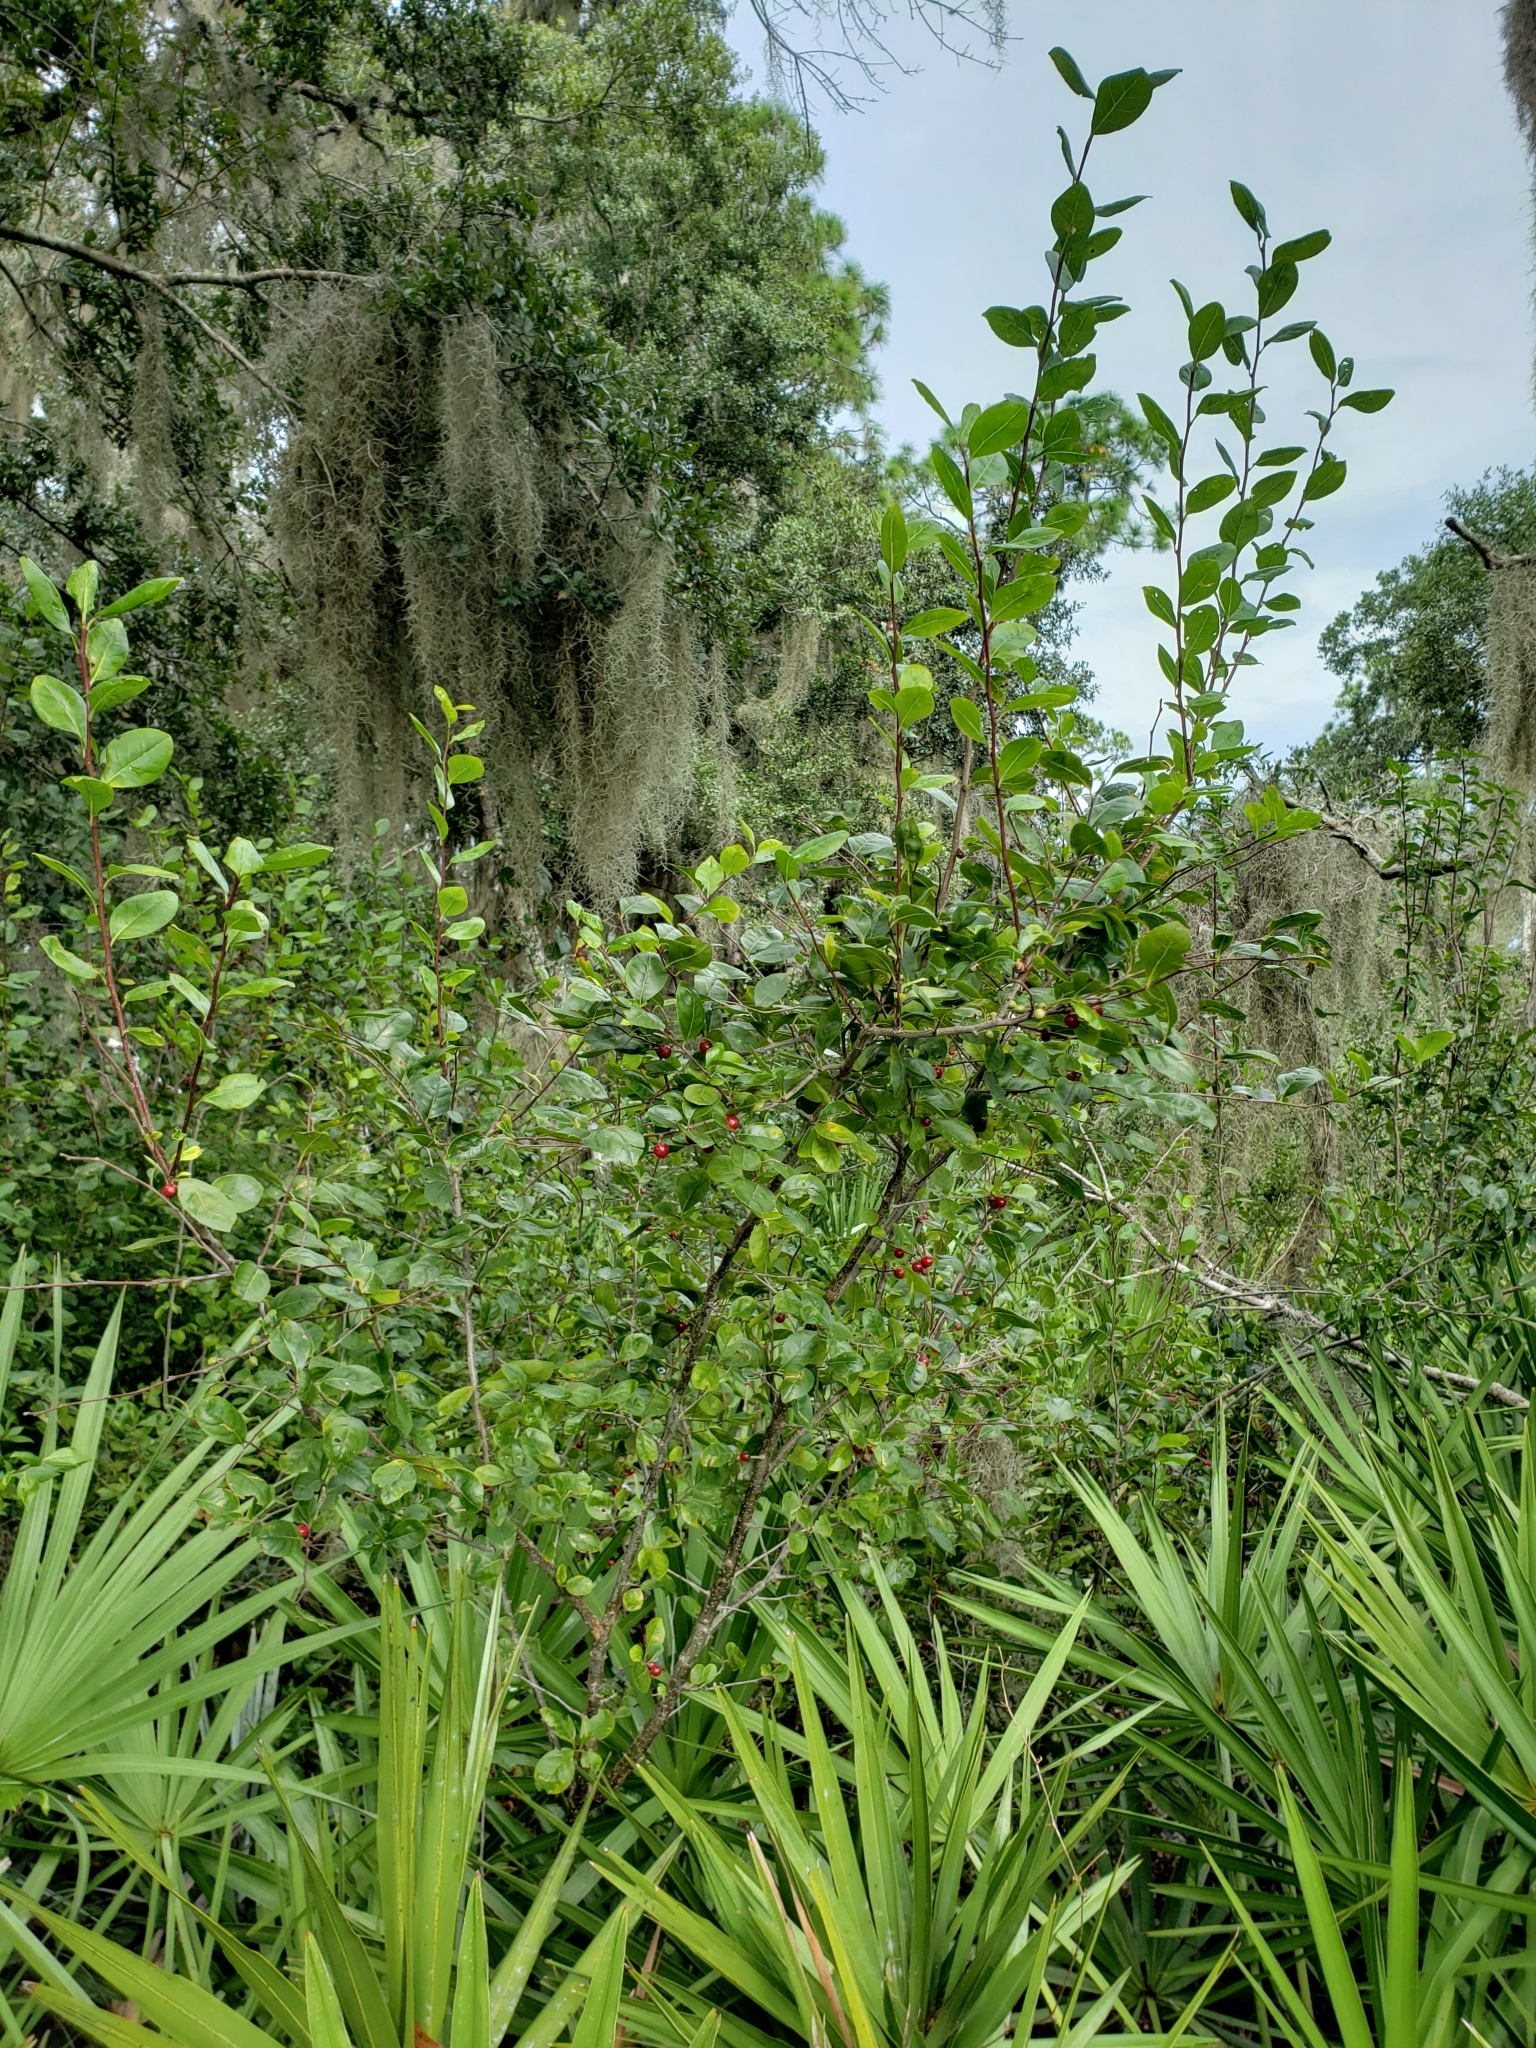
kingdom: Plantae
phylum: Tracheophyta
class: Magnoliopsida
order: Aquifoliales
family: Aquifoliaceae
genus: Ilex
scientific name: Ilex ambigua
